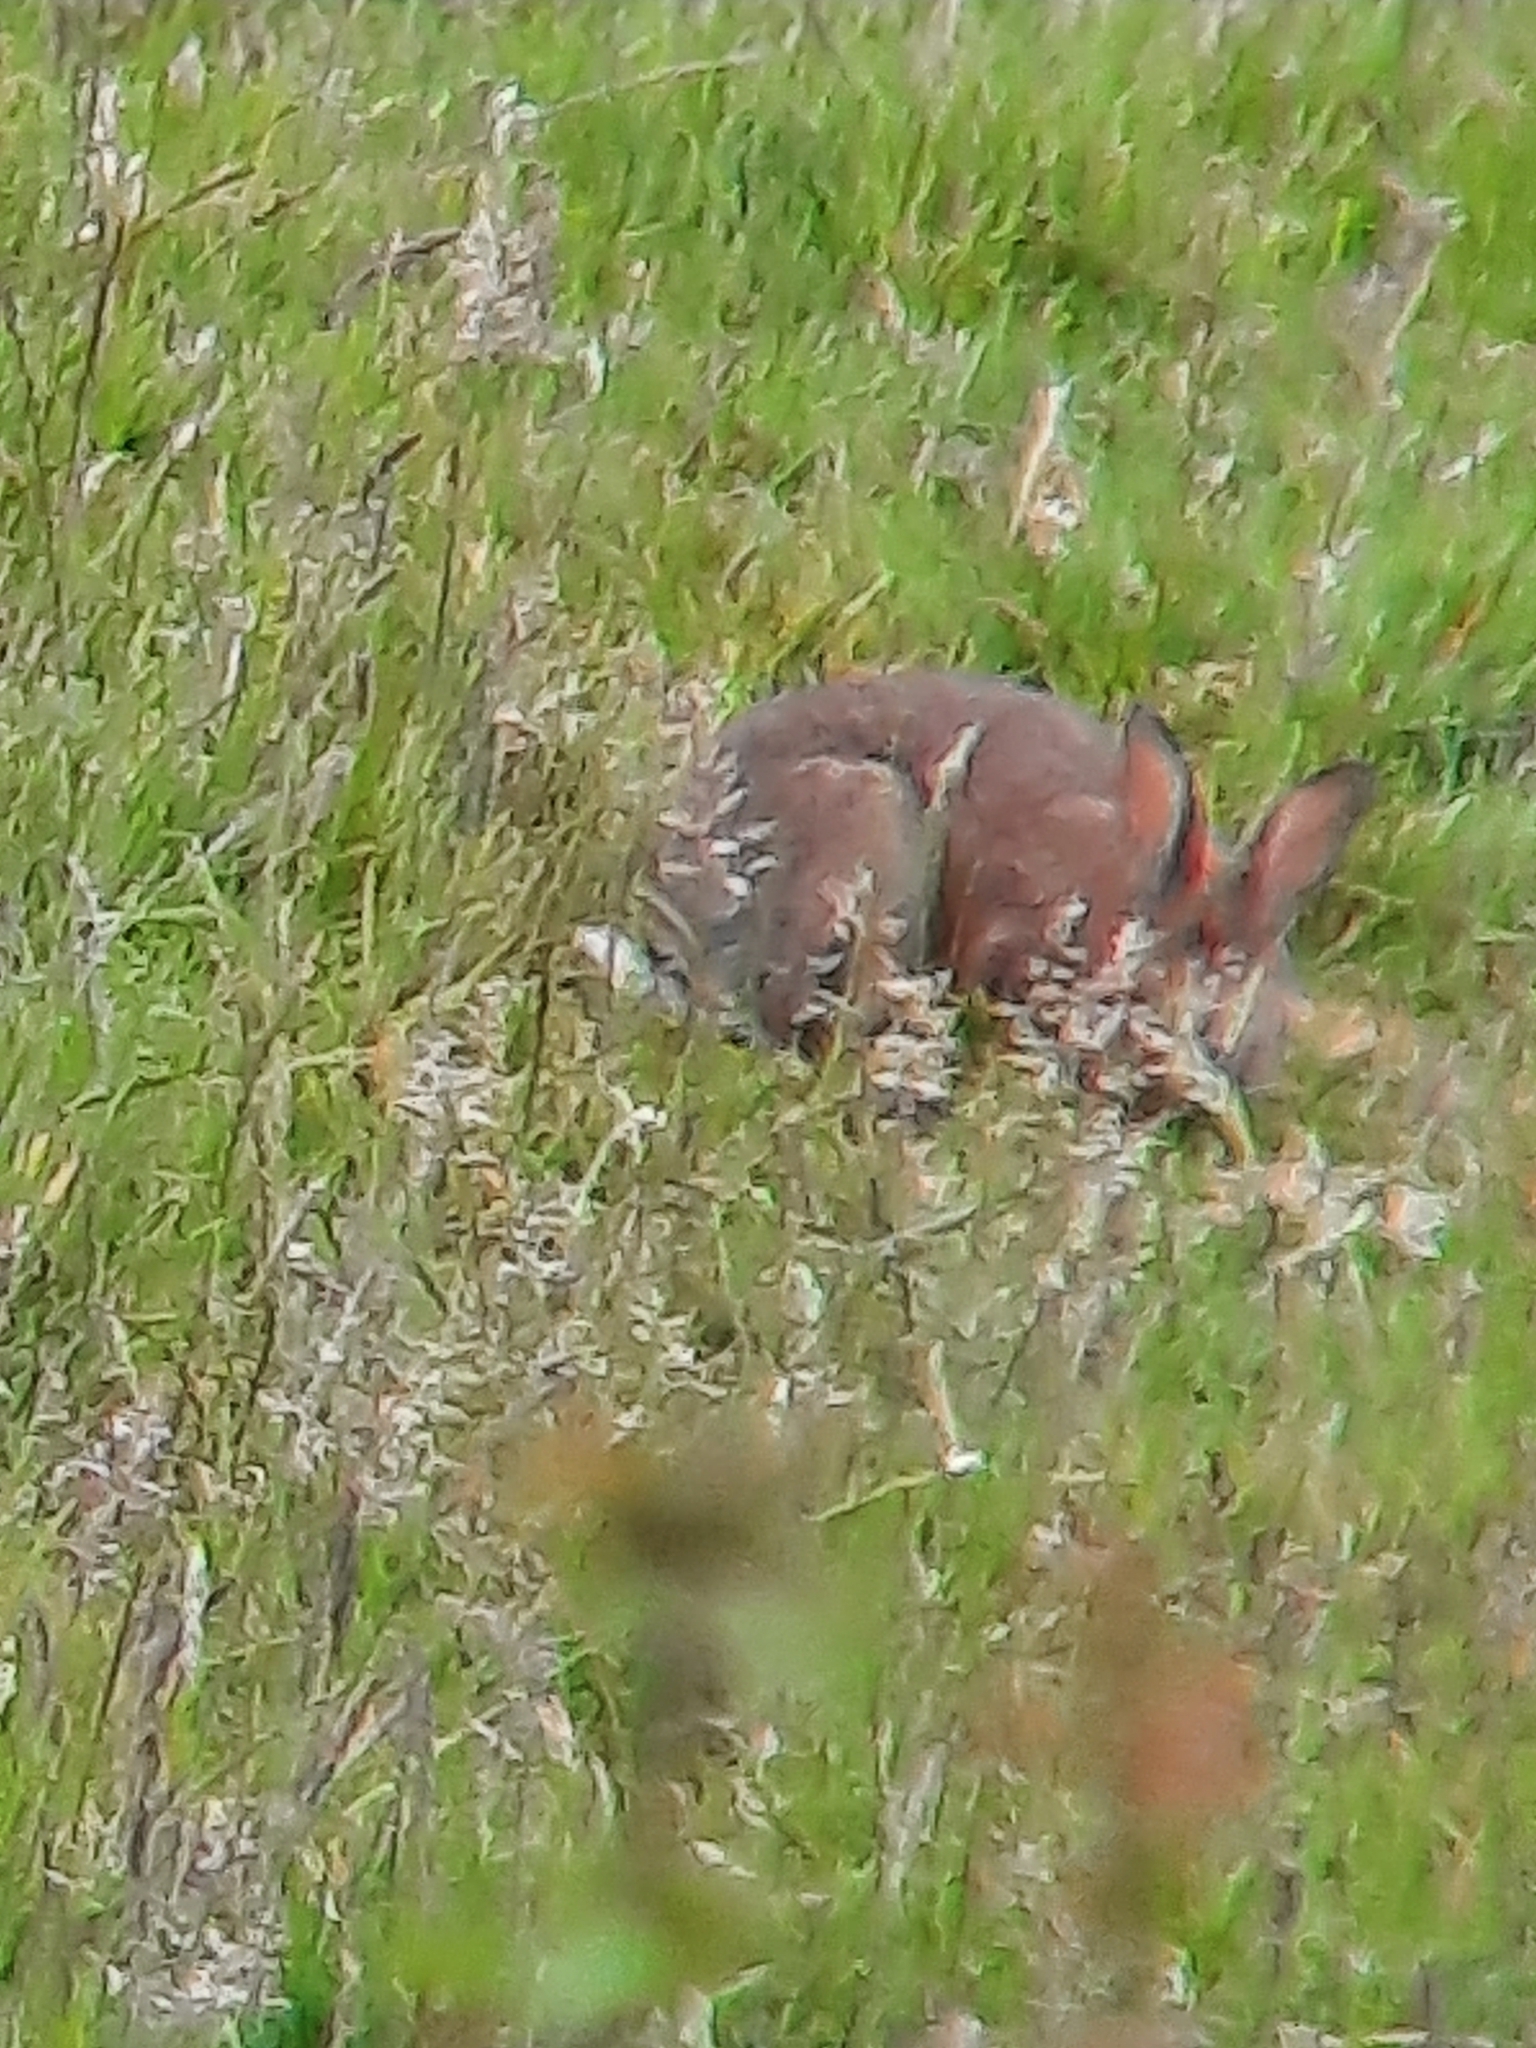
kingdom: Animalia
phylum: Chordata
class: Mammalia
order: Lagomorpha
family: Leporidae
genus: Oryctolagus
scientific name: Oryctolagus cuniculus
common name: European rabbit
